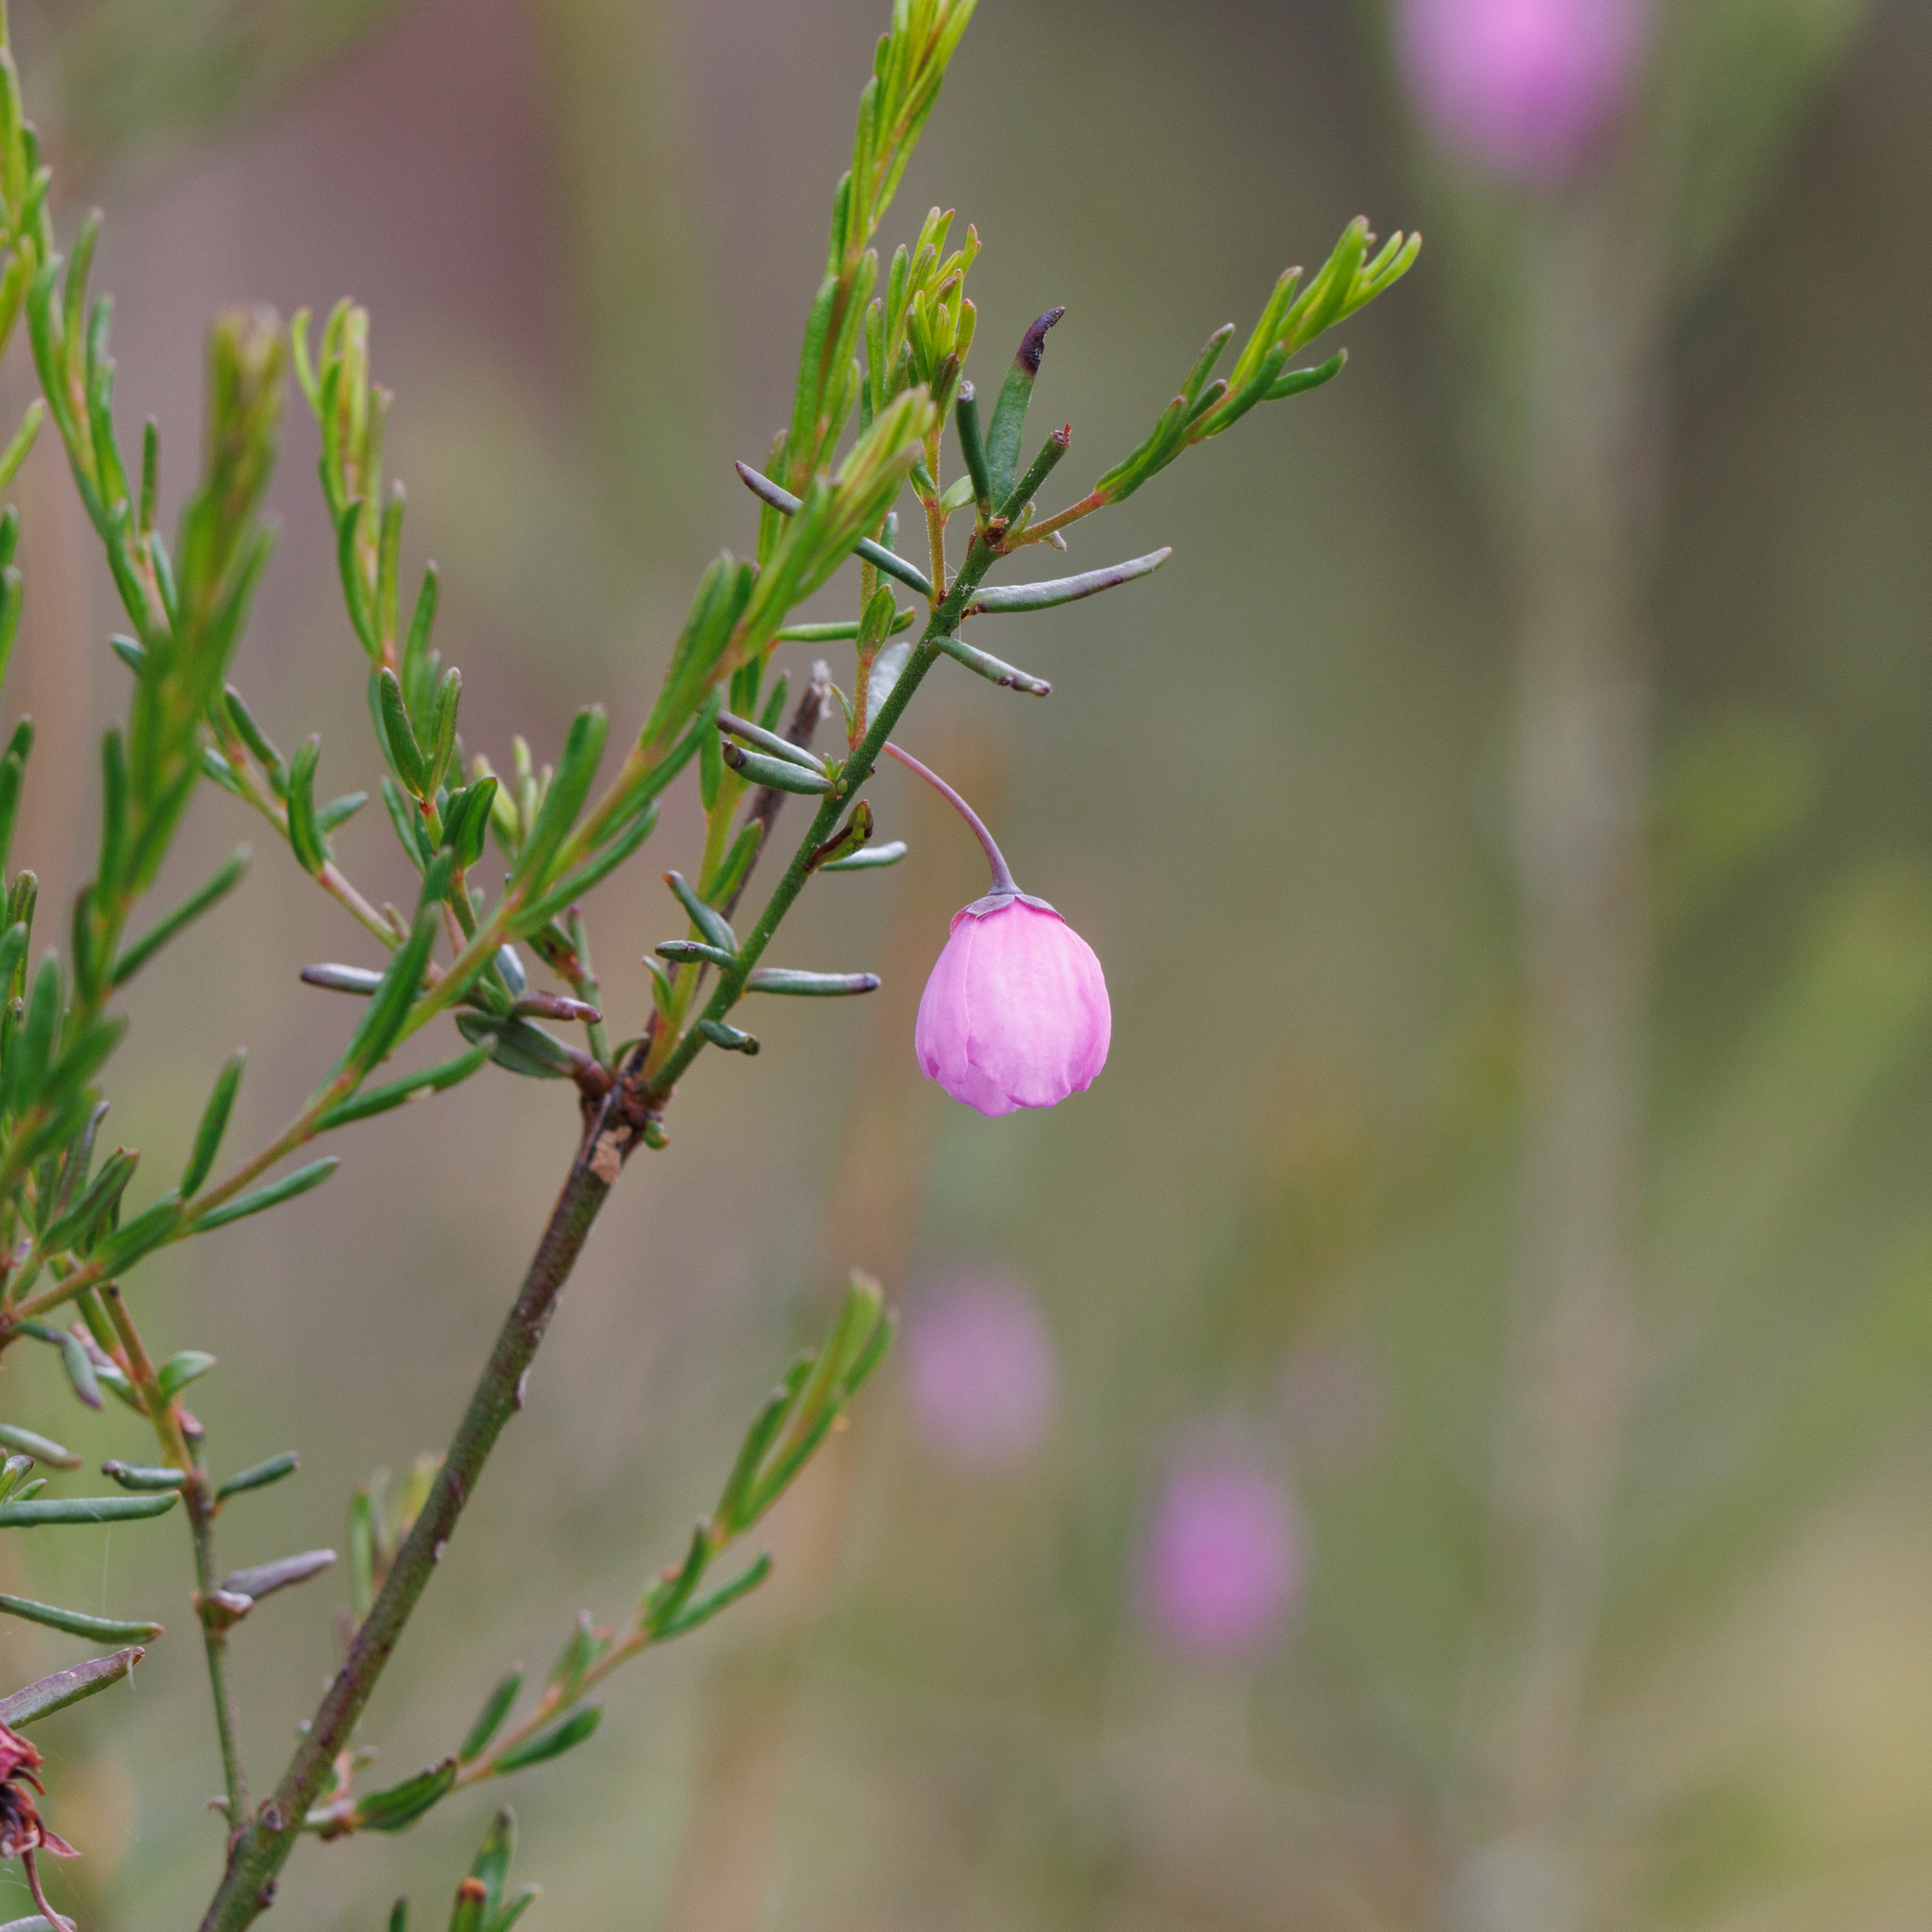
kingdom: Plantae
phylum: Tracheophyta
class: Magnoliopsida
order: Oxalidales
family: Elaeocarpaceae
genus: Tetratheca
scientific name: Tetratheca pilosa
